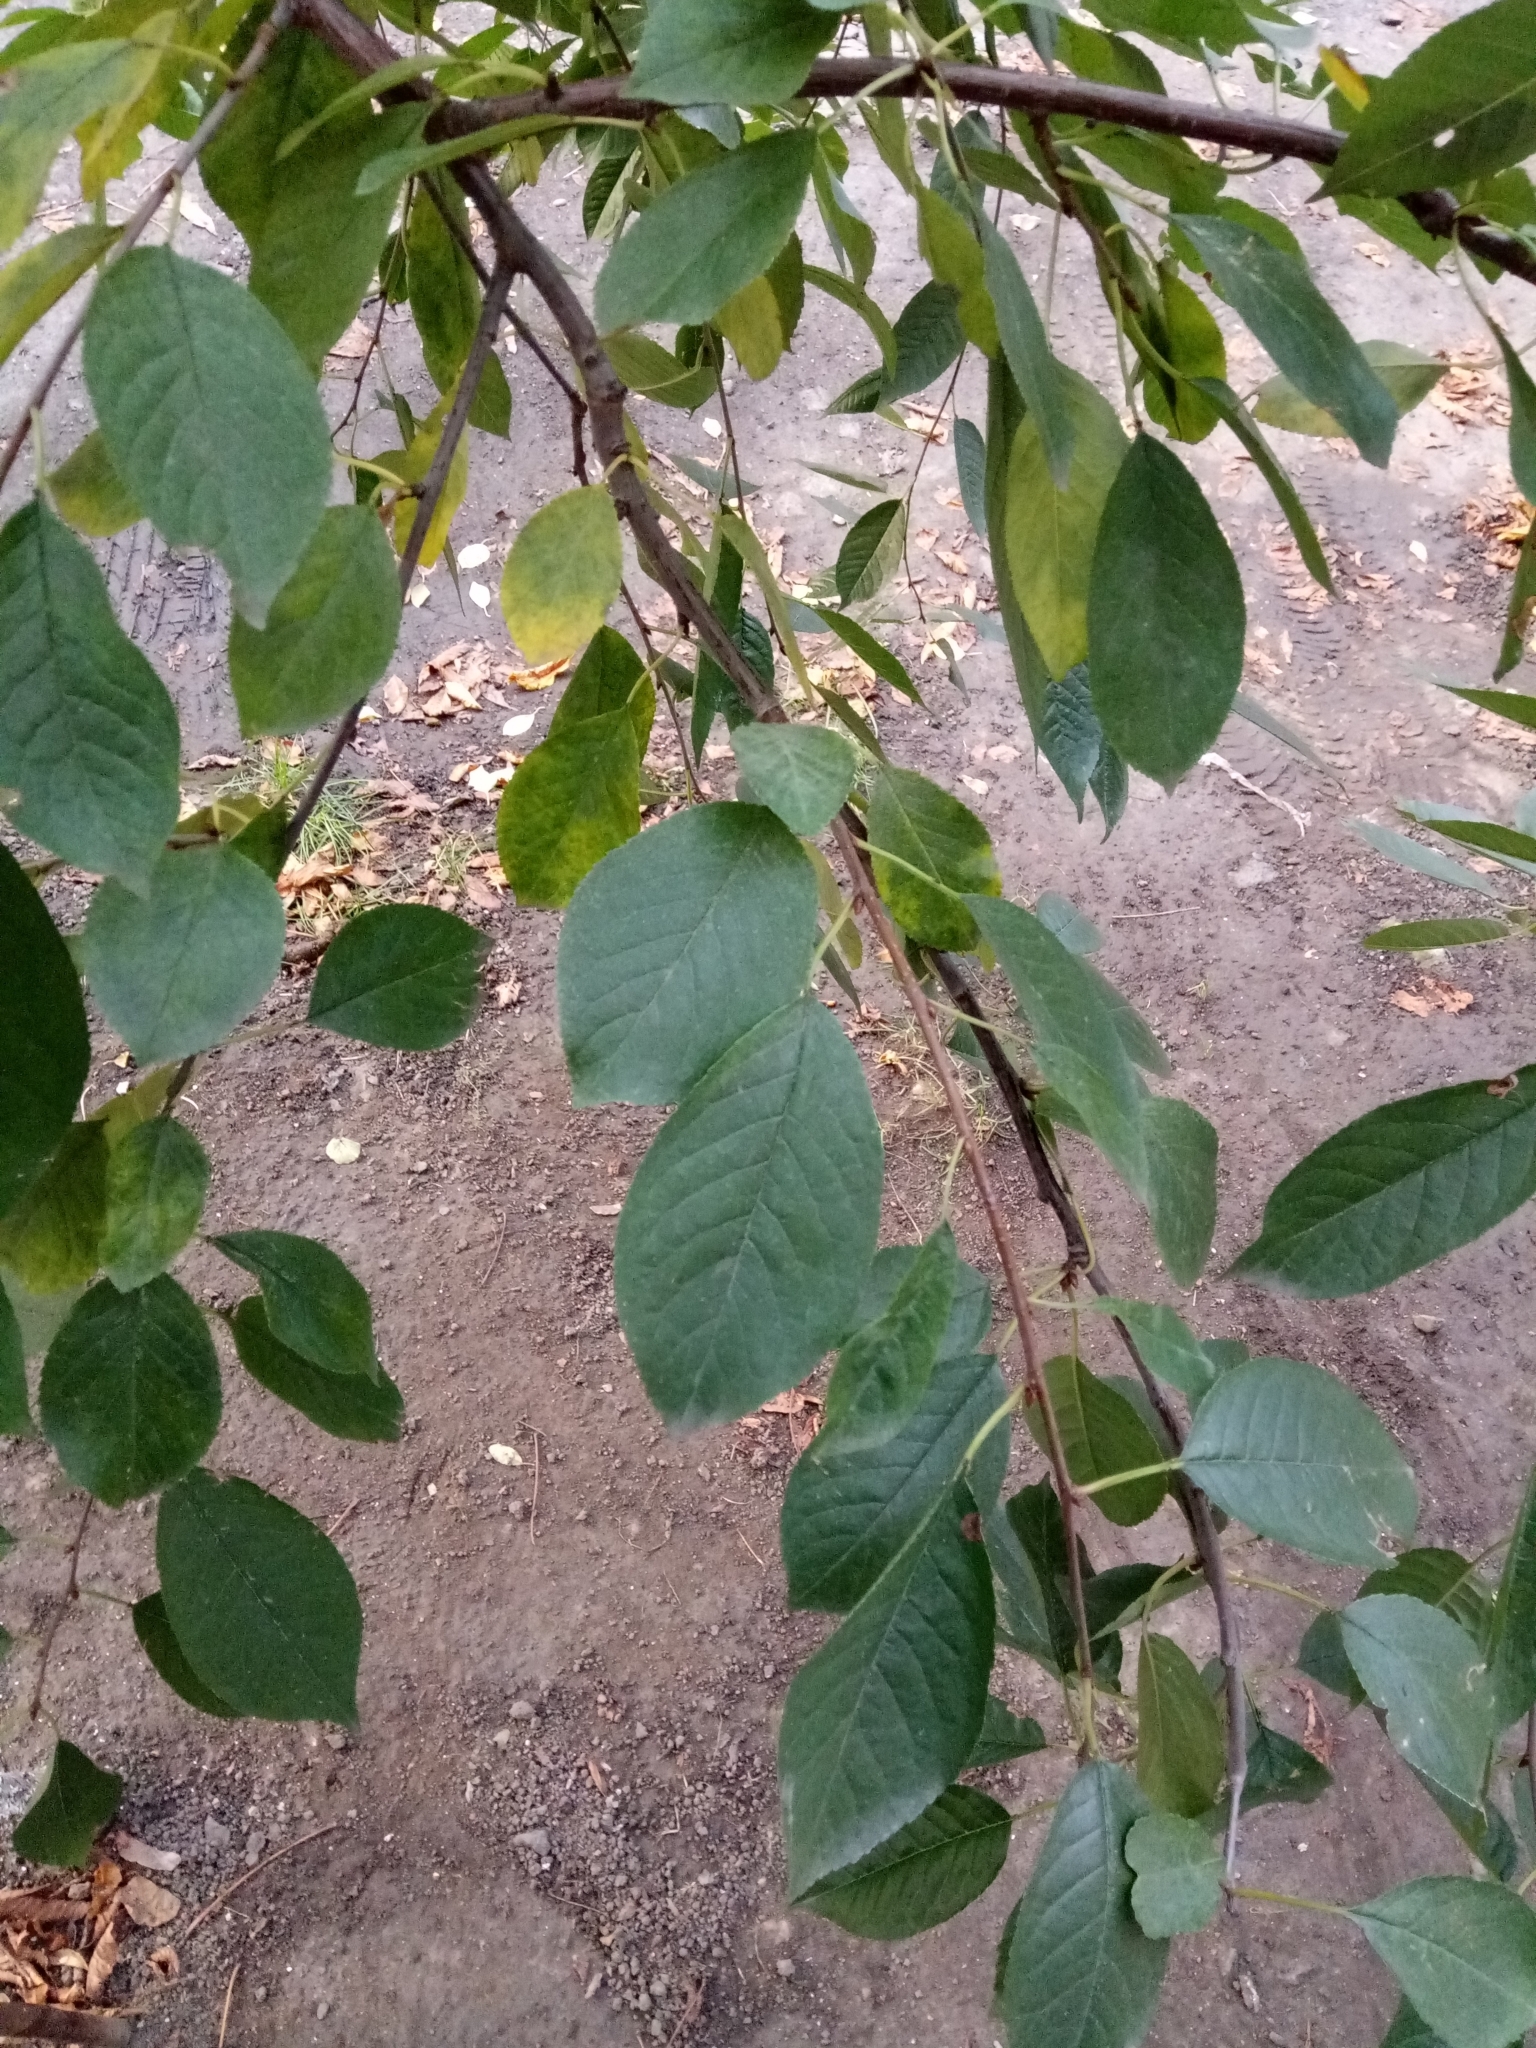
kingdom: Plantae
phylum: Tracheophyta
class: Magnoliopsida
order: Rosales
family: Rosaceae
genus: Prunus
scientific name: Prunus padus
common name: Bird cherry
